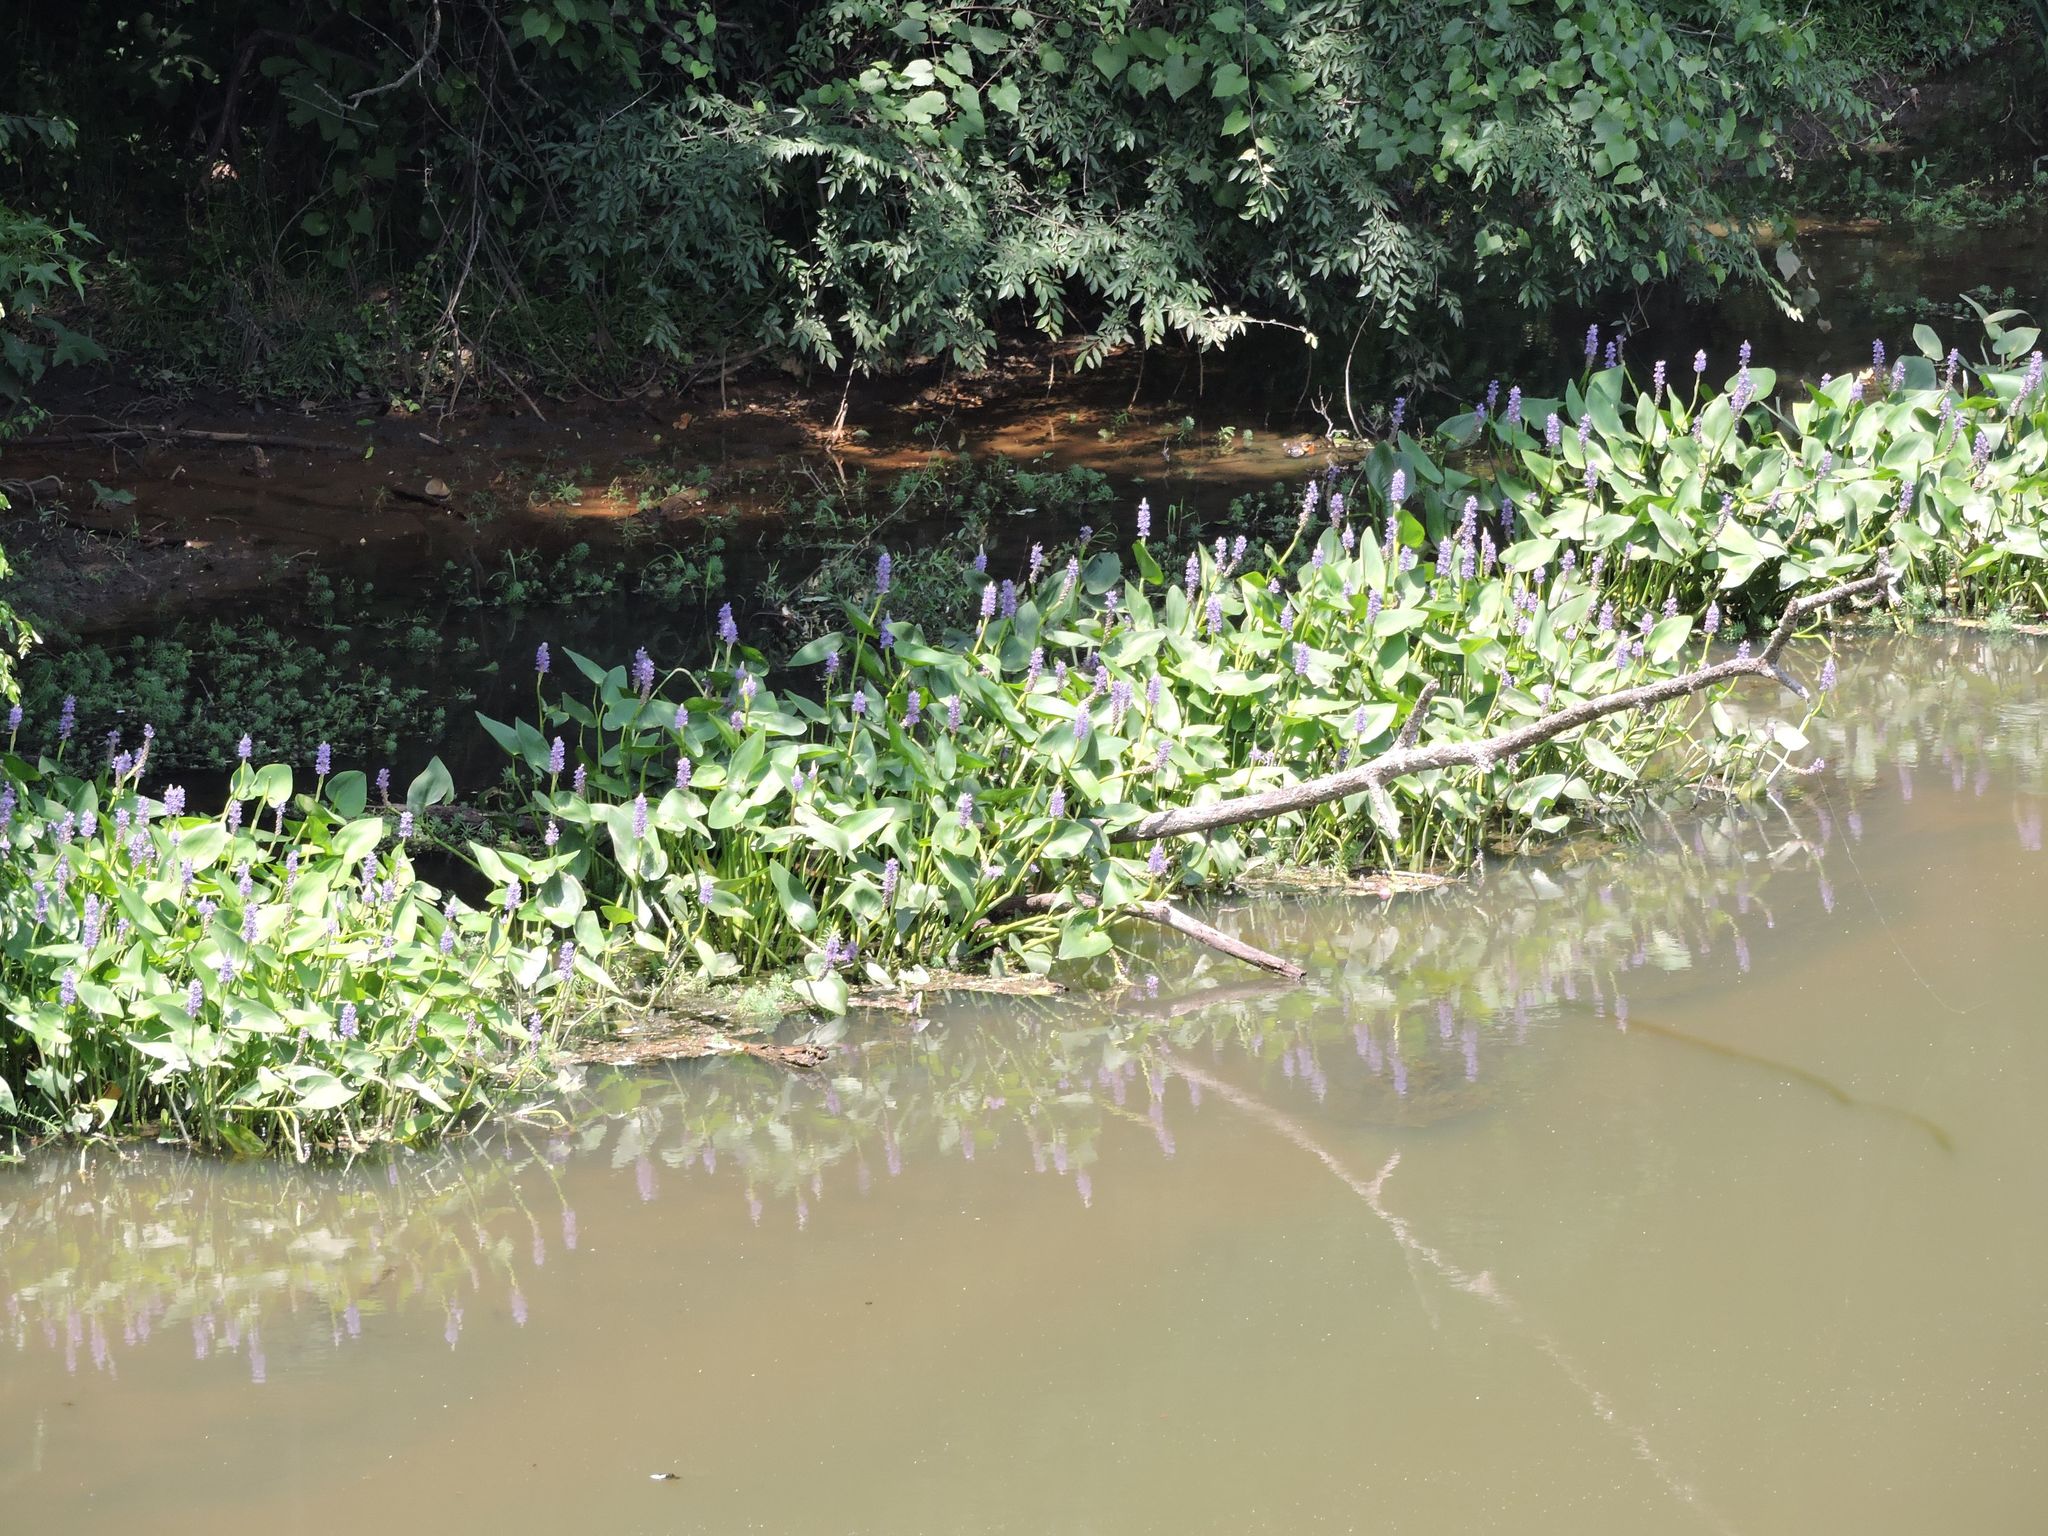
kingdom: Plantae
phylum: Tracheophyta
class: Liliopsida
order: Commelinales
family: Pontederiaceae
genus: Pontederia
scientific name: Pontederia cordata
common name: Pickerelweed
